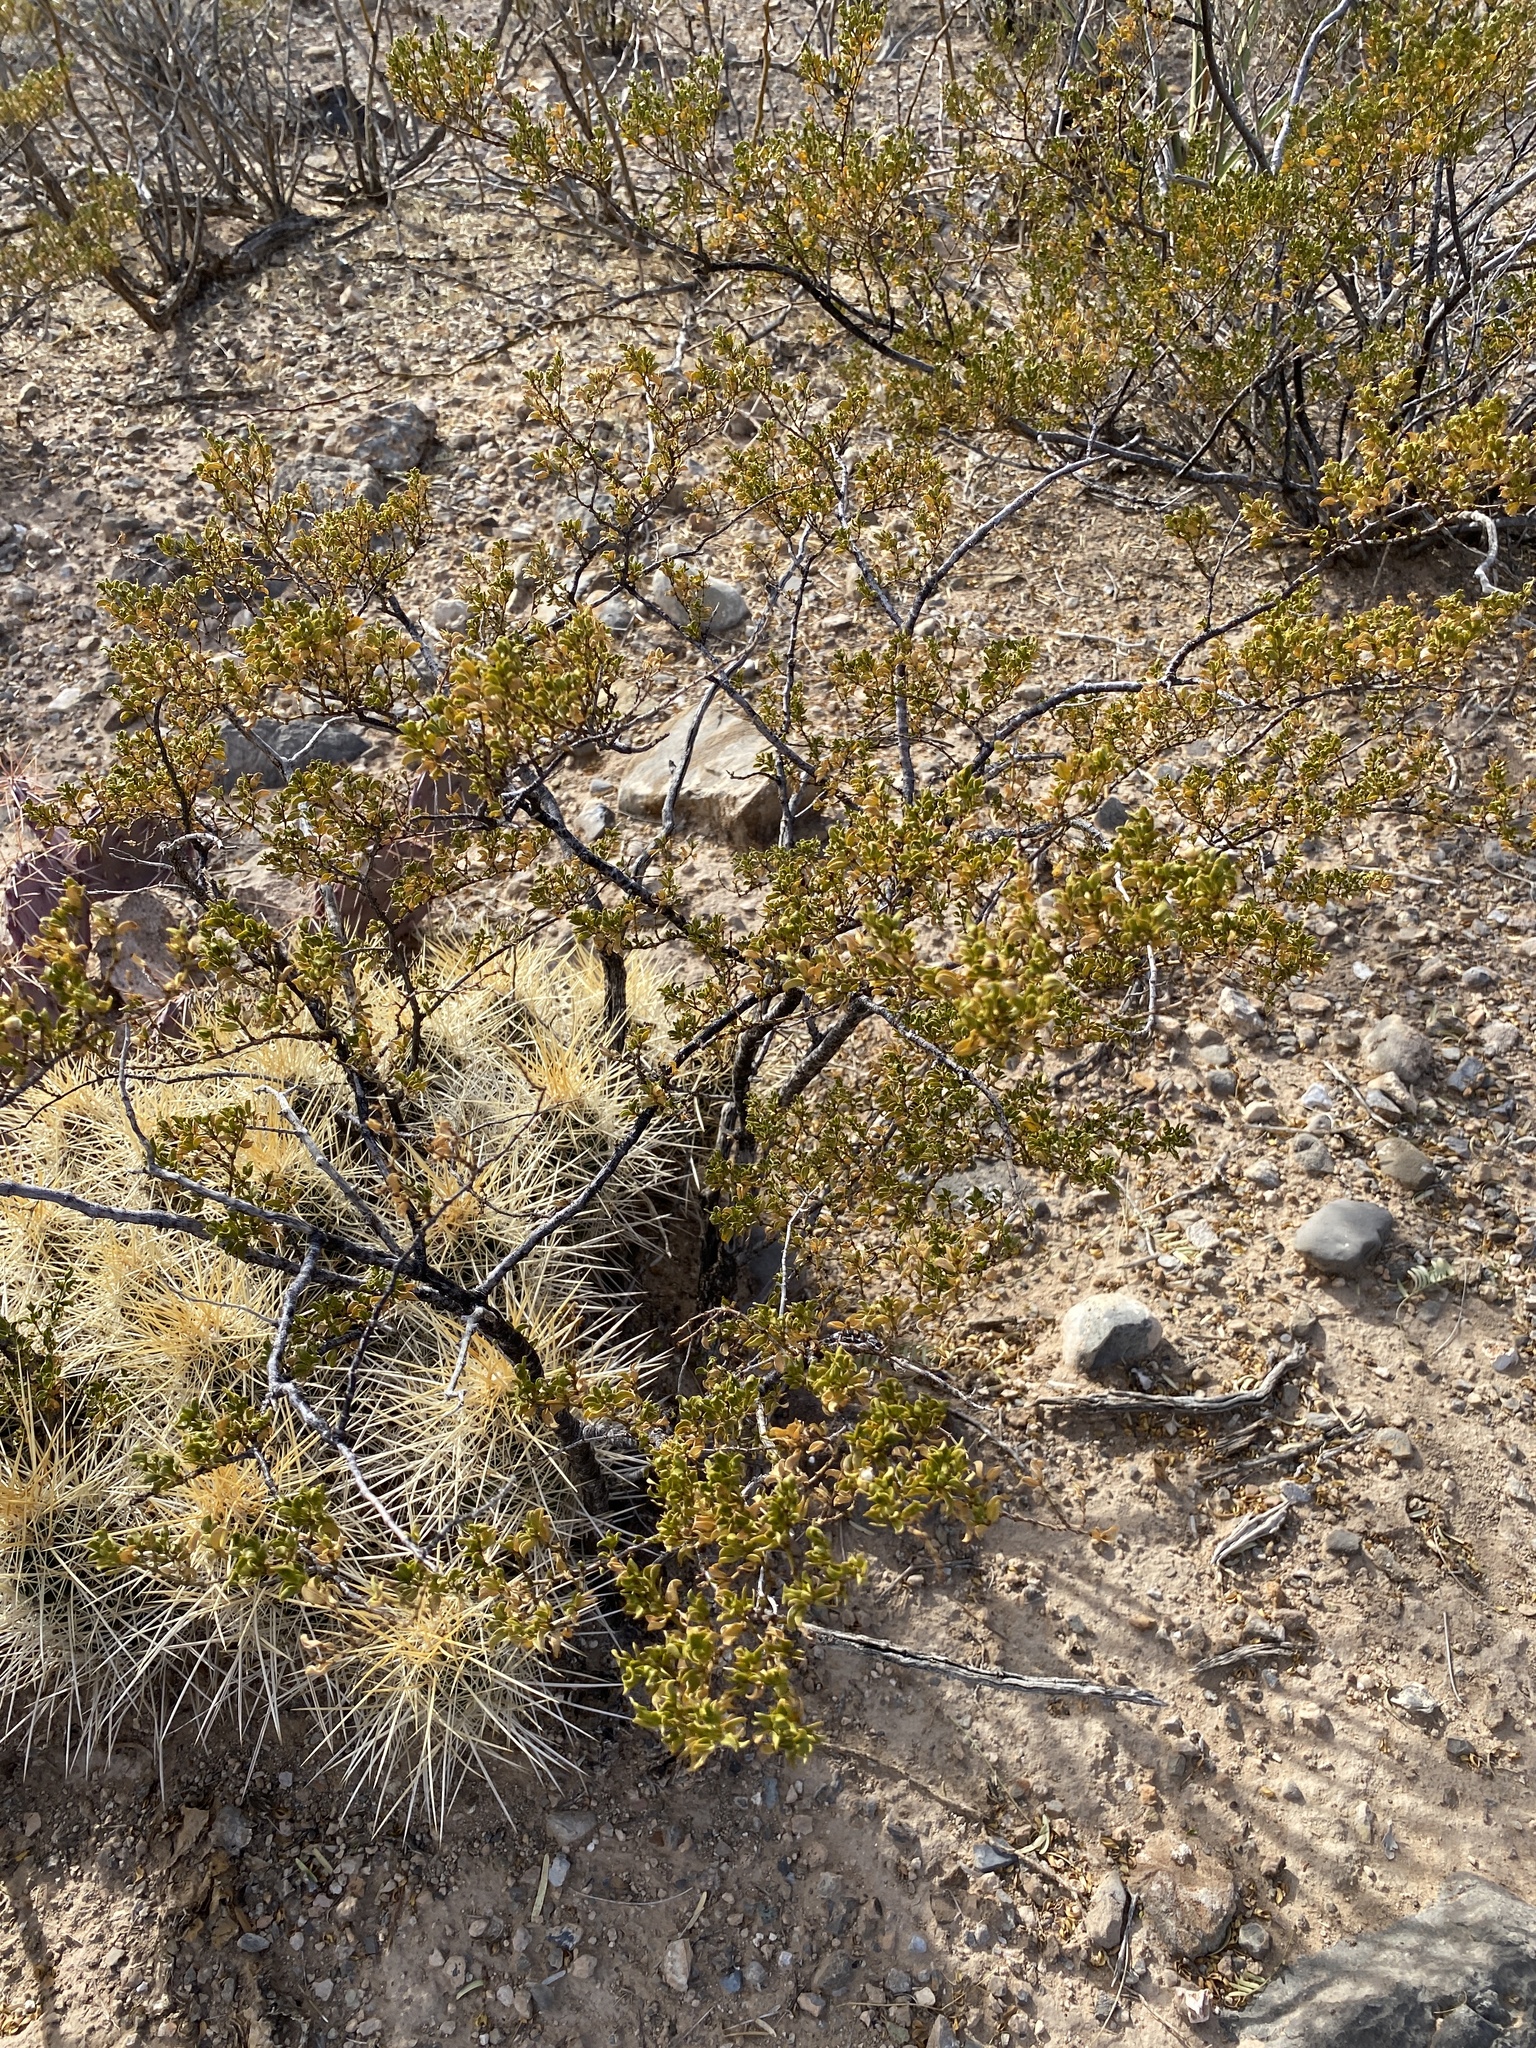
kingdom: Plantae
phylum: Tracheophyta
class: Magnoliopsida
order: Zygophyllales
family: Zygophyllaceae
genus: Larrea
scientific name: Larrea tridentata
